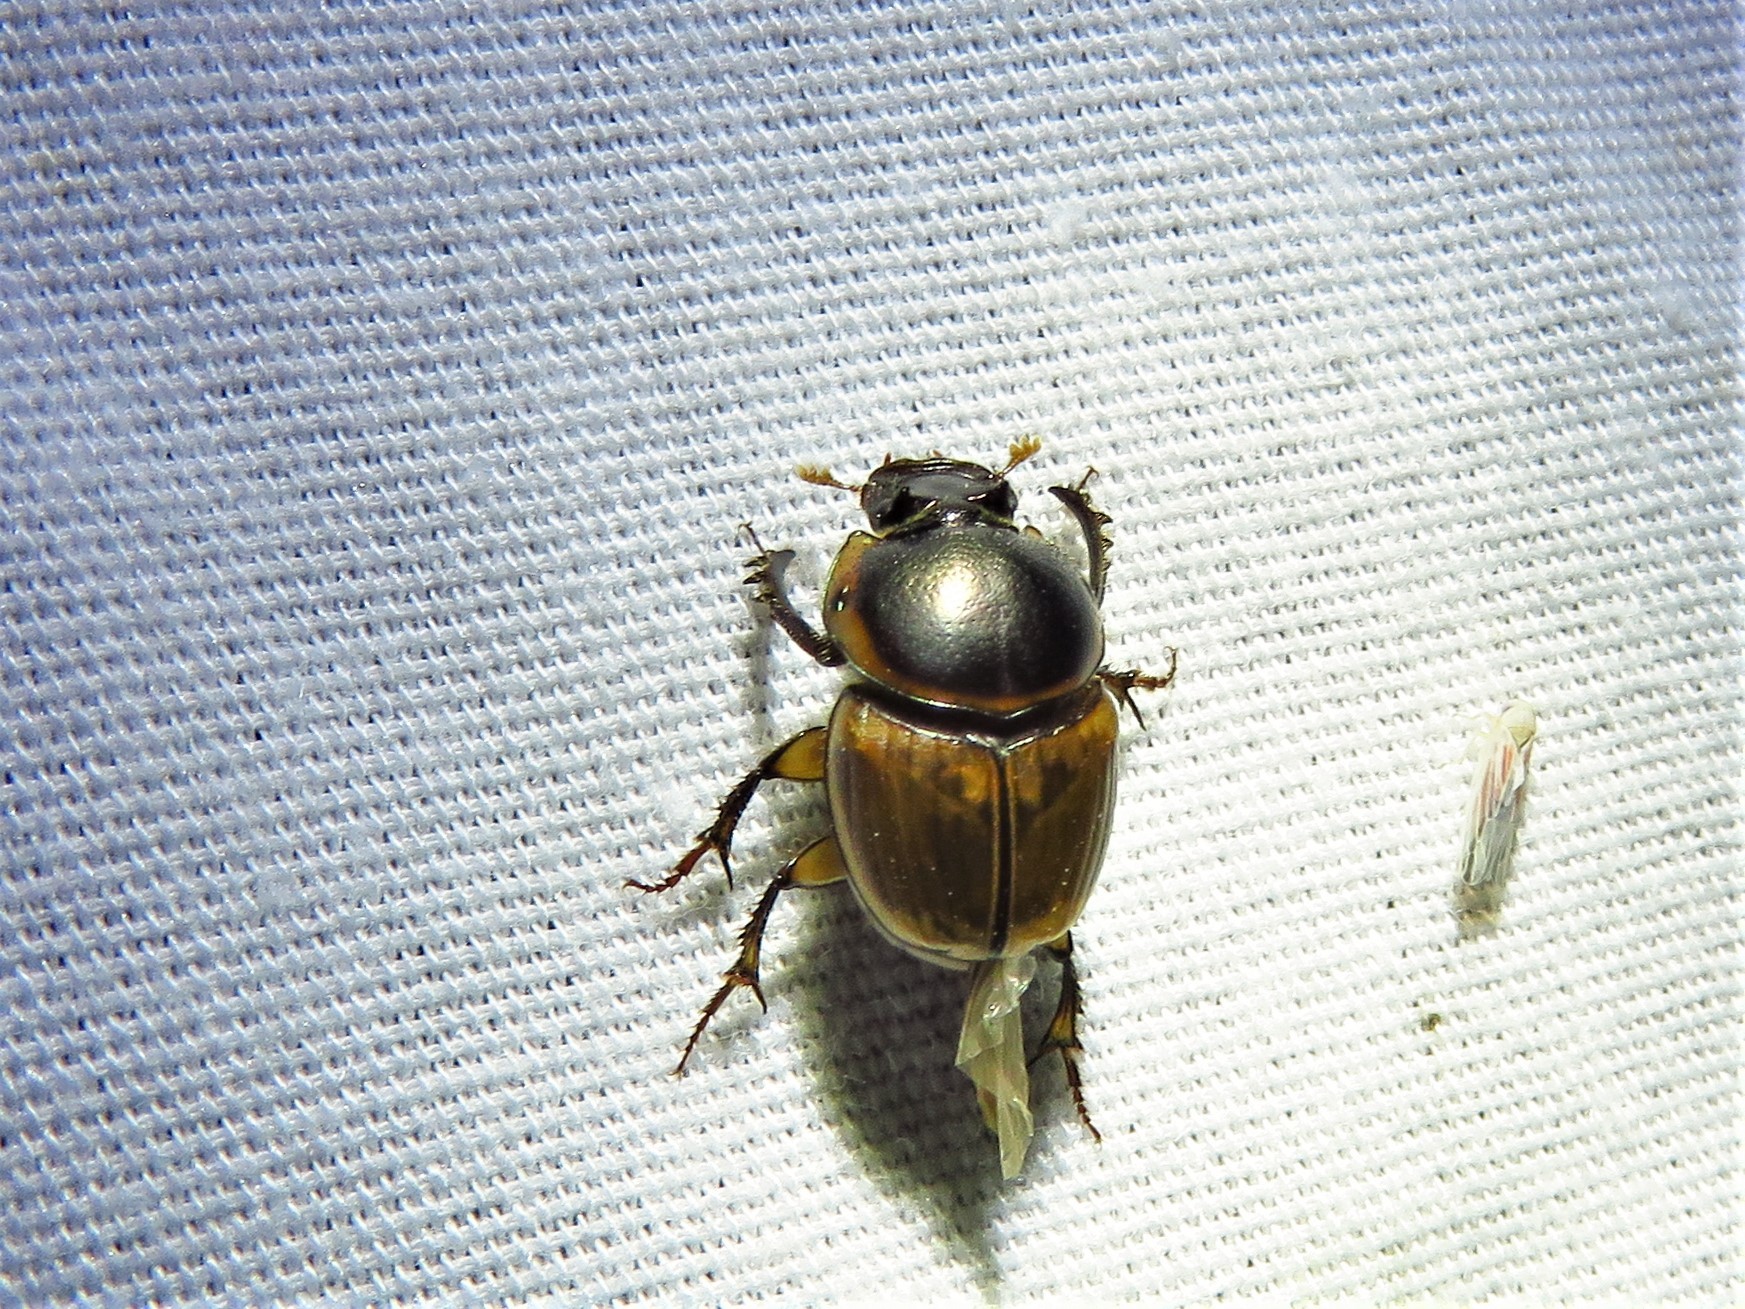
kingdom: Animalia
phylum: Arthropoda
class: Insecta
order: Coleoptera
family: Scarabaeidae
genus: Digitonthophagus
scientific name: Digitonthophagus gazella
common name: Brown dung beetle
